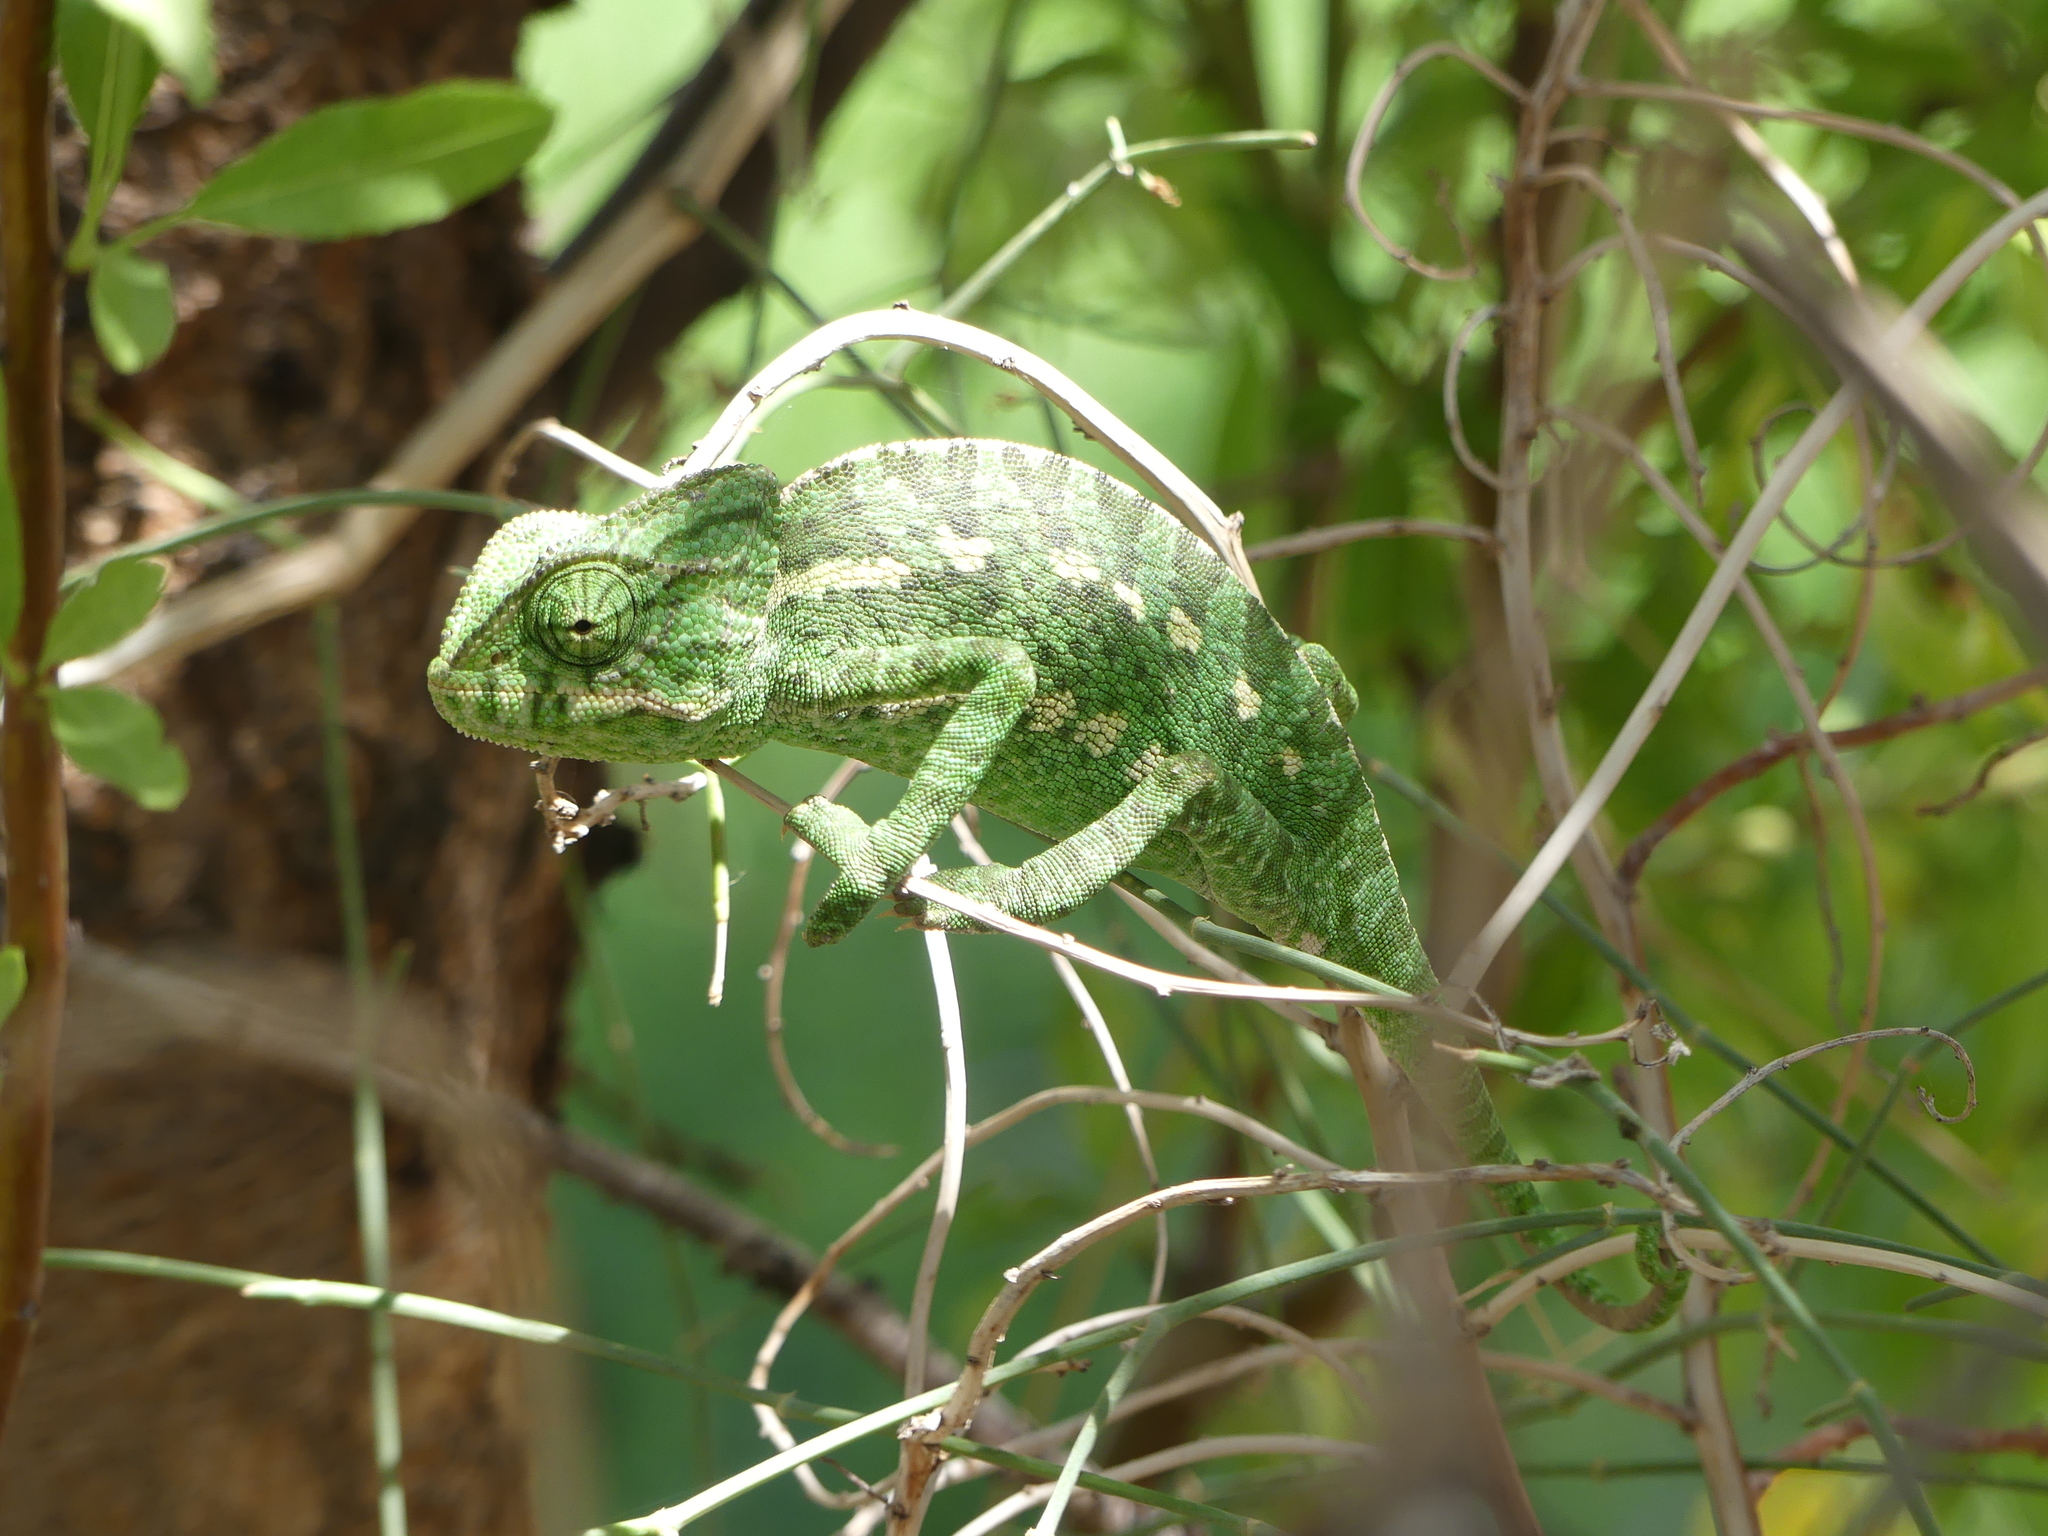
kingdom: Animalia
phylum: Chordata
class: Squamata
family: Chamaeleonidae
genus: Chamaeleo
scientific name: Chamaeleo chamaeleon
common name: Mediterranean chameleon
